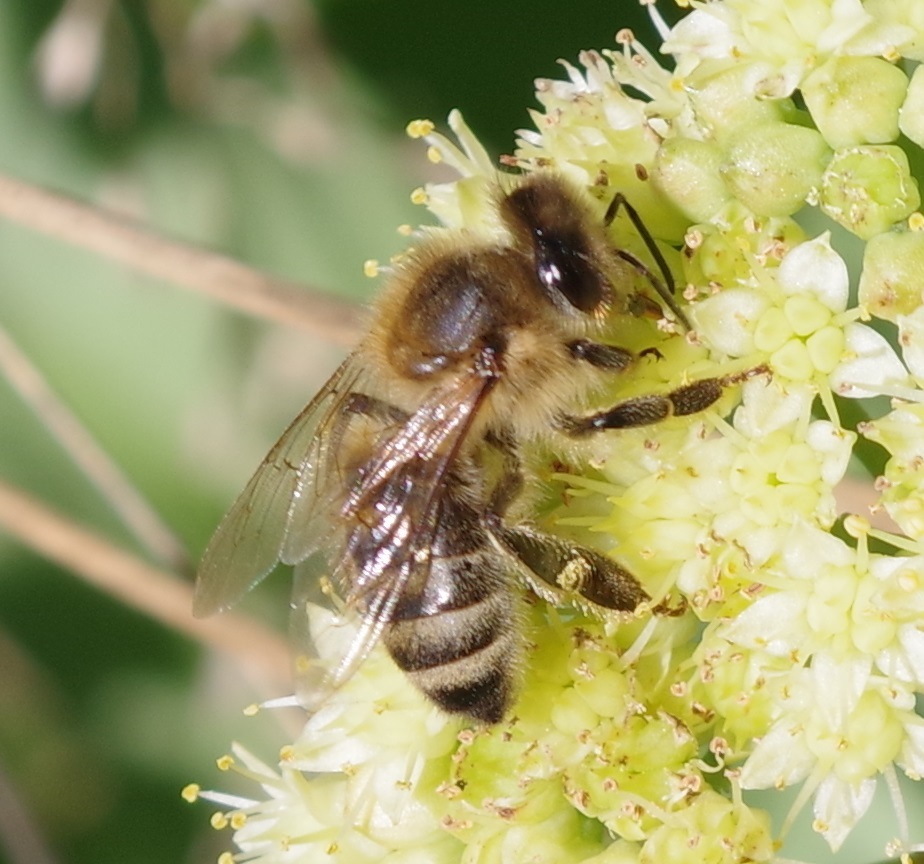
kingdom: Animalia
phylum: Arthropoda
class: Insecta
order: Hymenoptera
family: Apidae
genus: Apis
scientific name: Apis mellifera
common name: Honey bee
